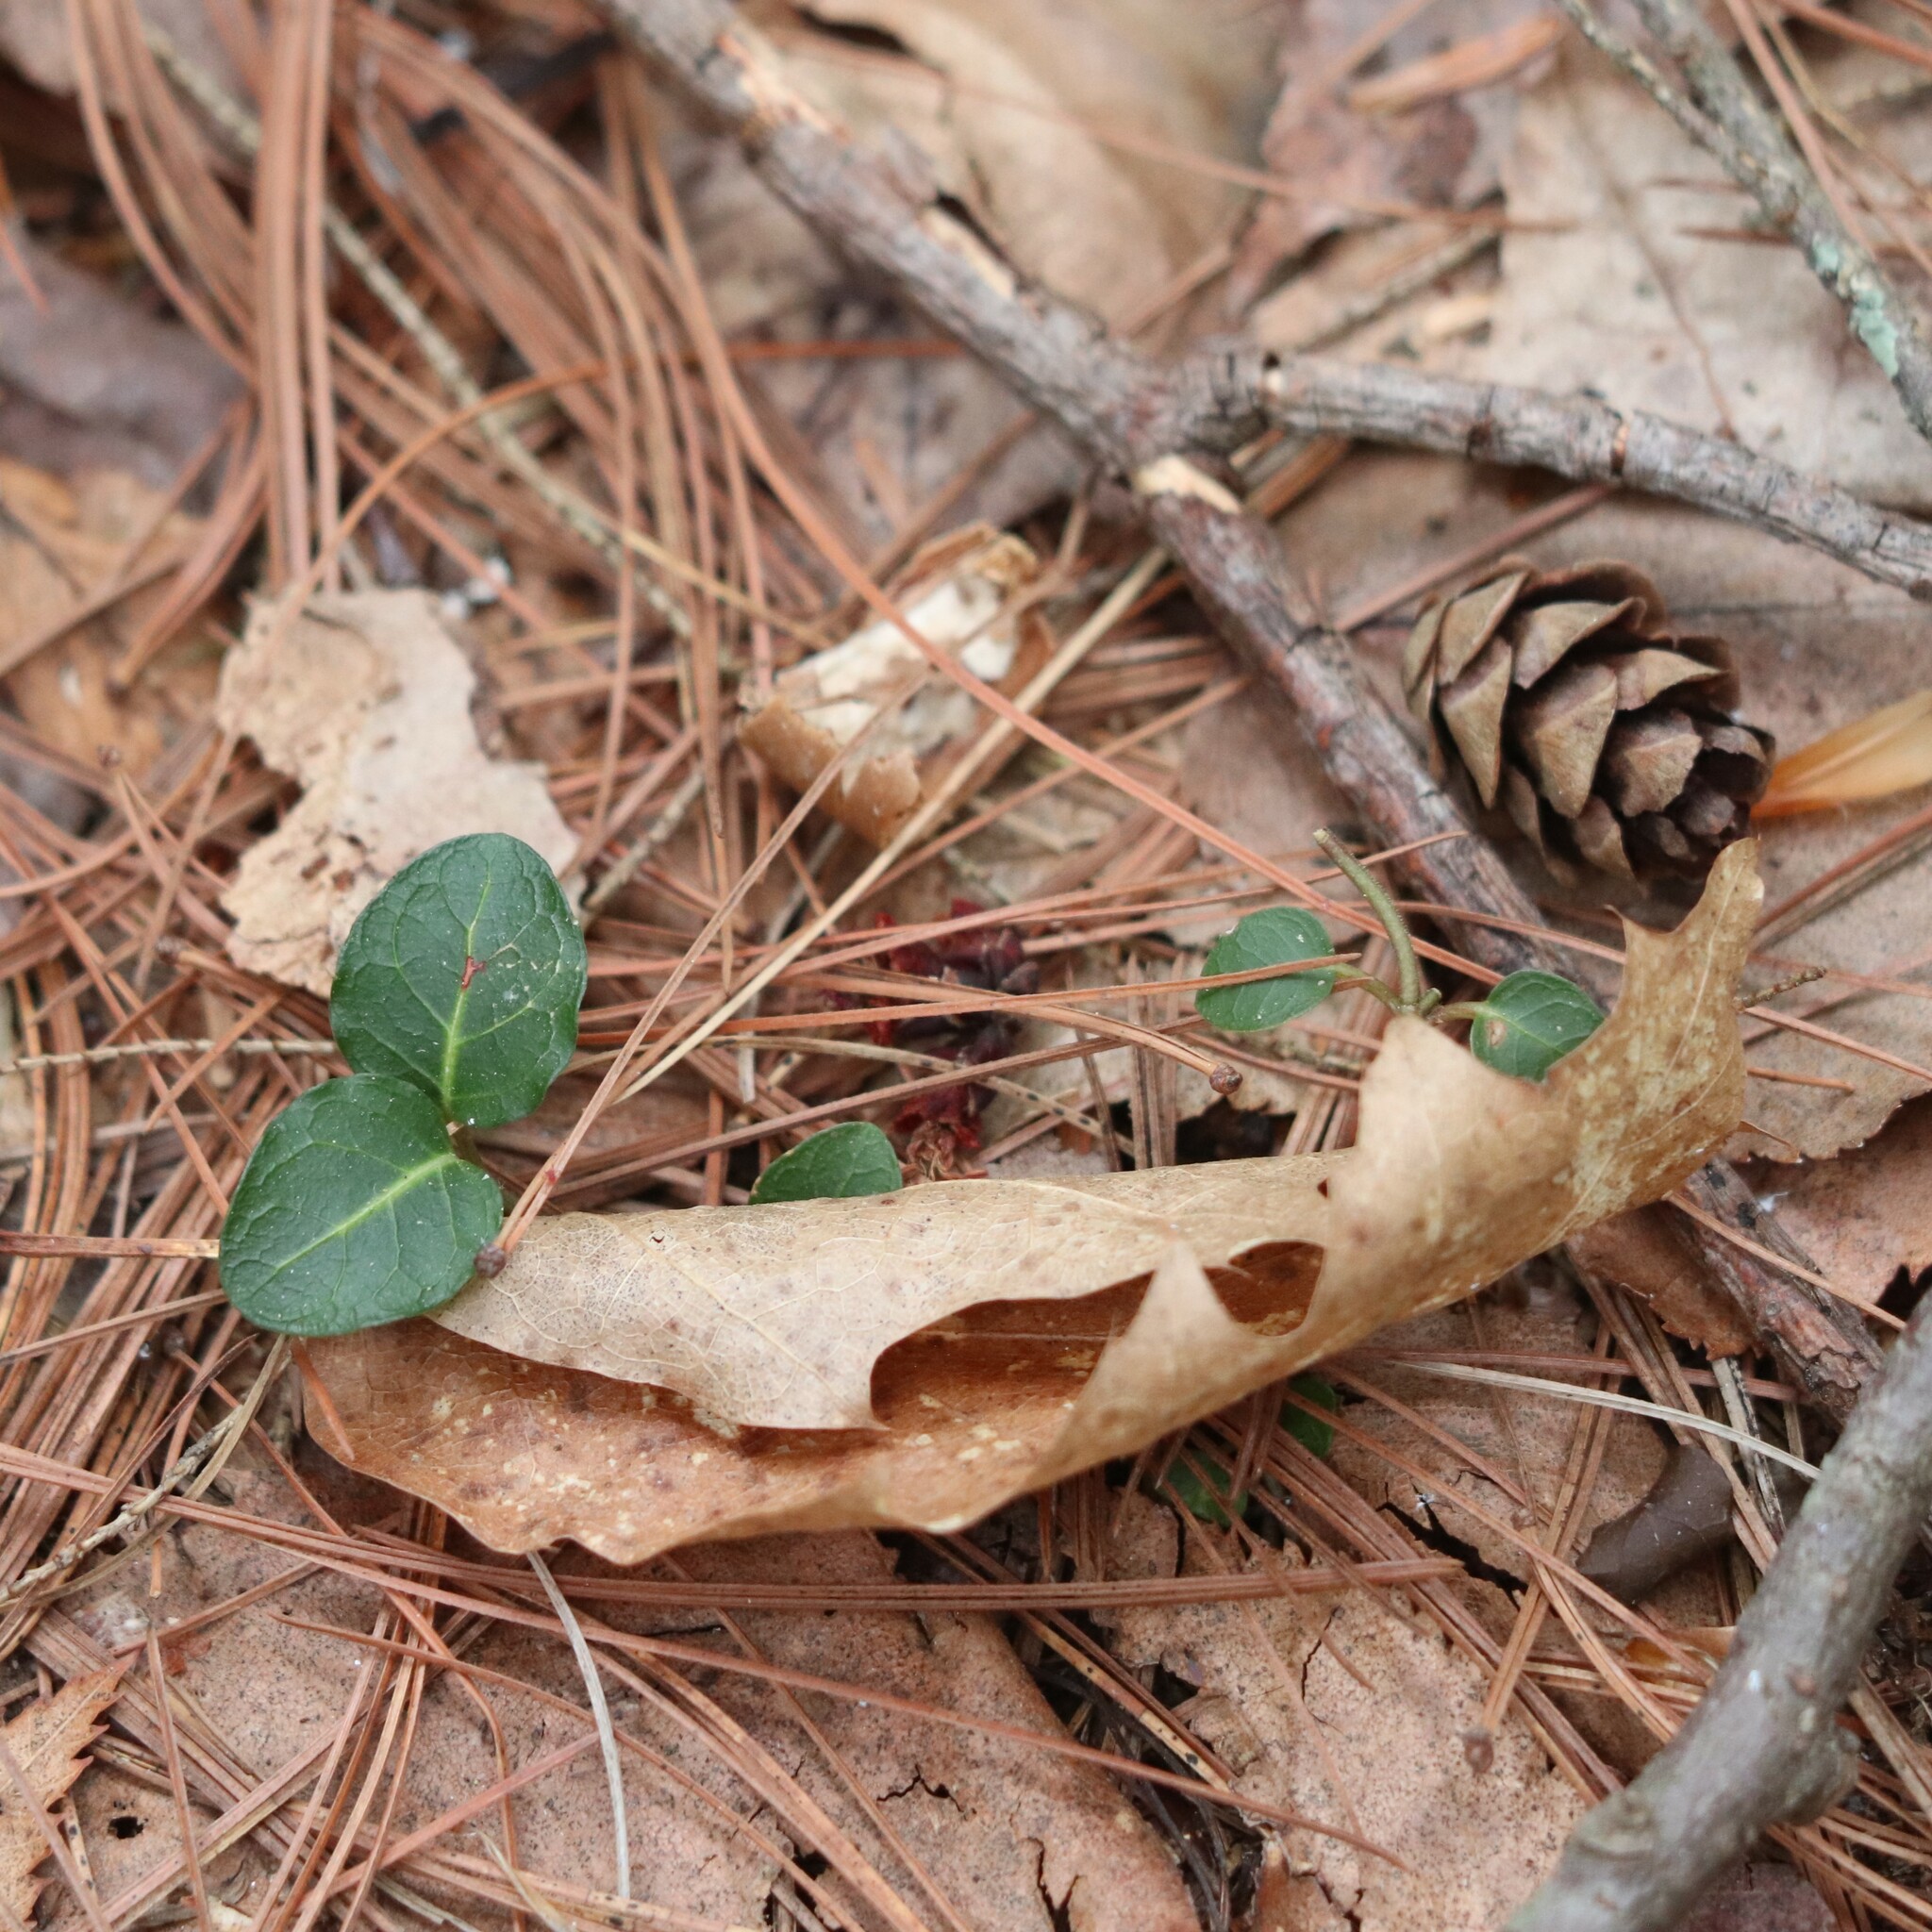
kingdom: Plantae
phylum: Tracheophyta
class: Magnoliopsida
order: Gentianales
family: Rubiaceae
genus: Mitchella
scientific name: Mitchella repens
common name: Partridge-berry
